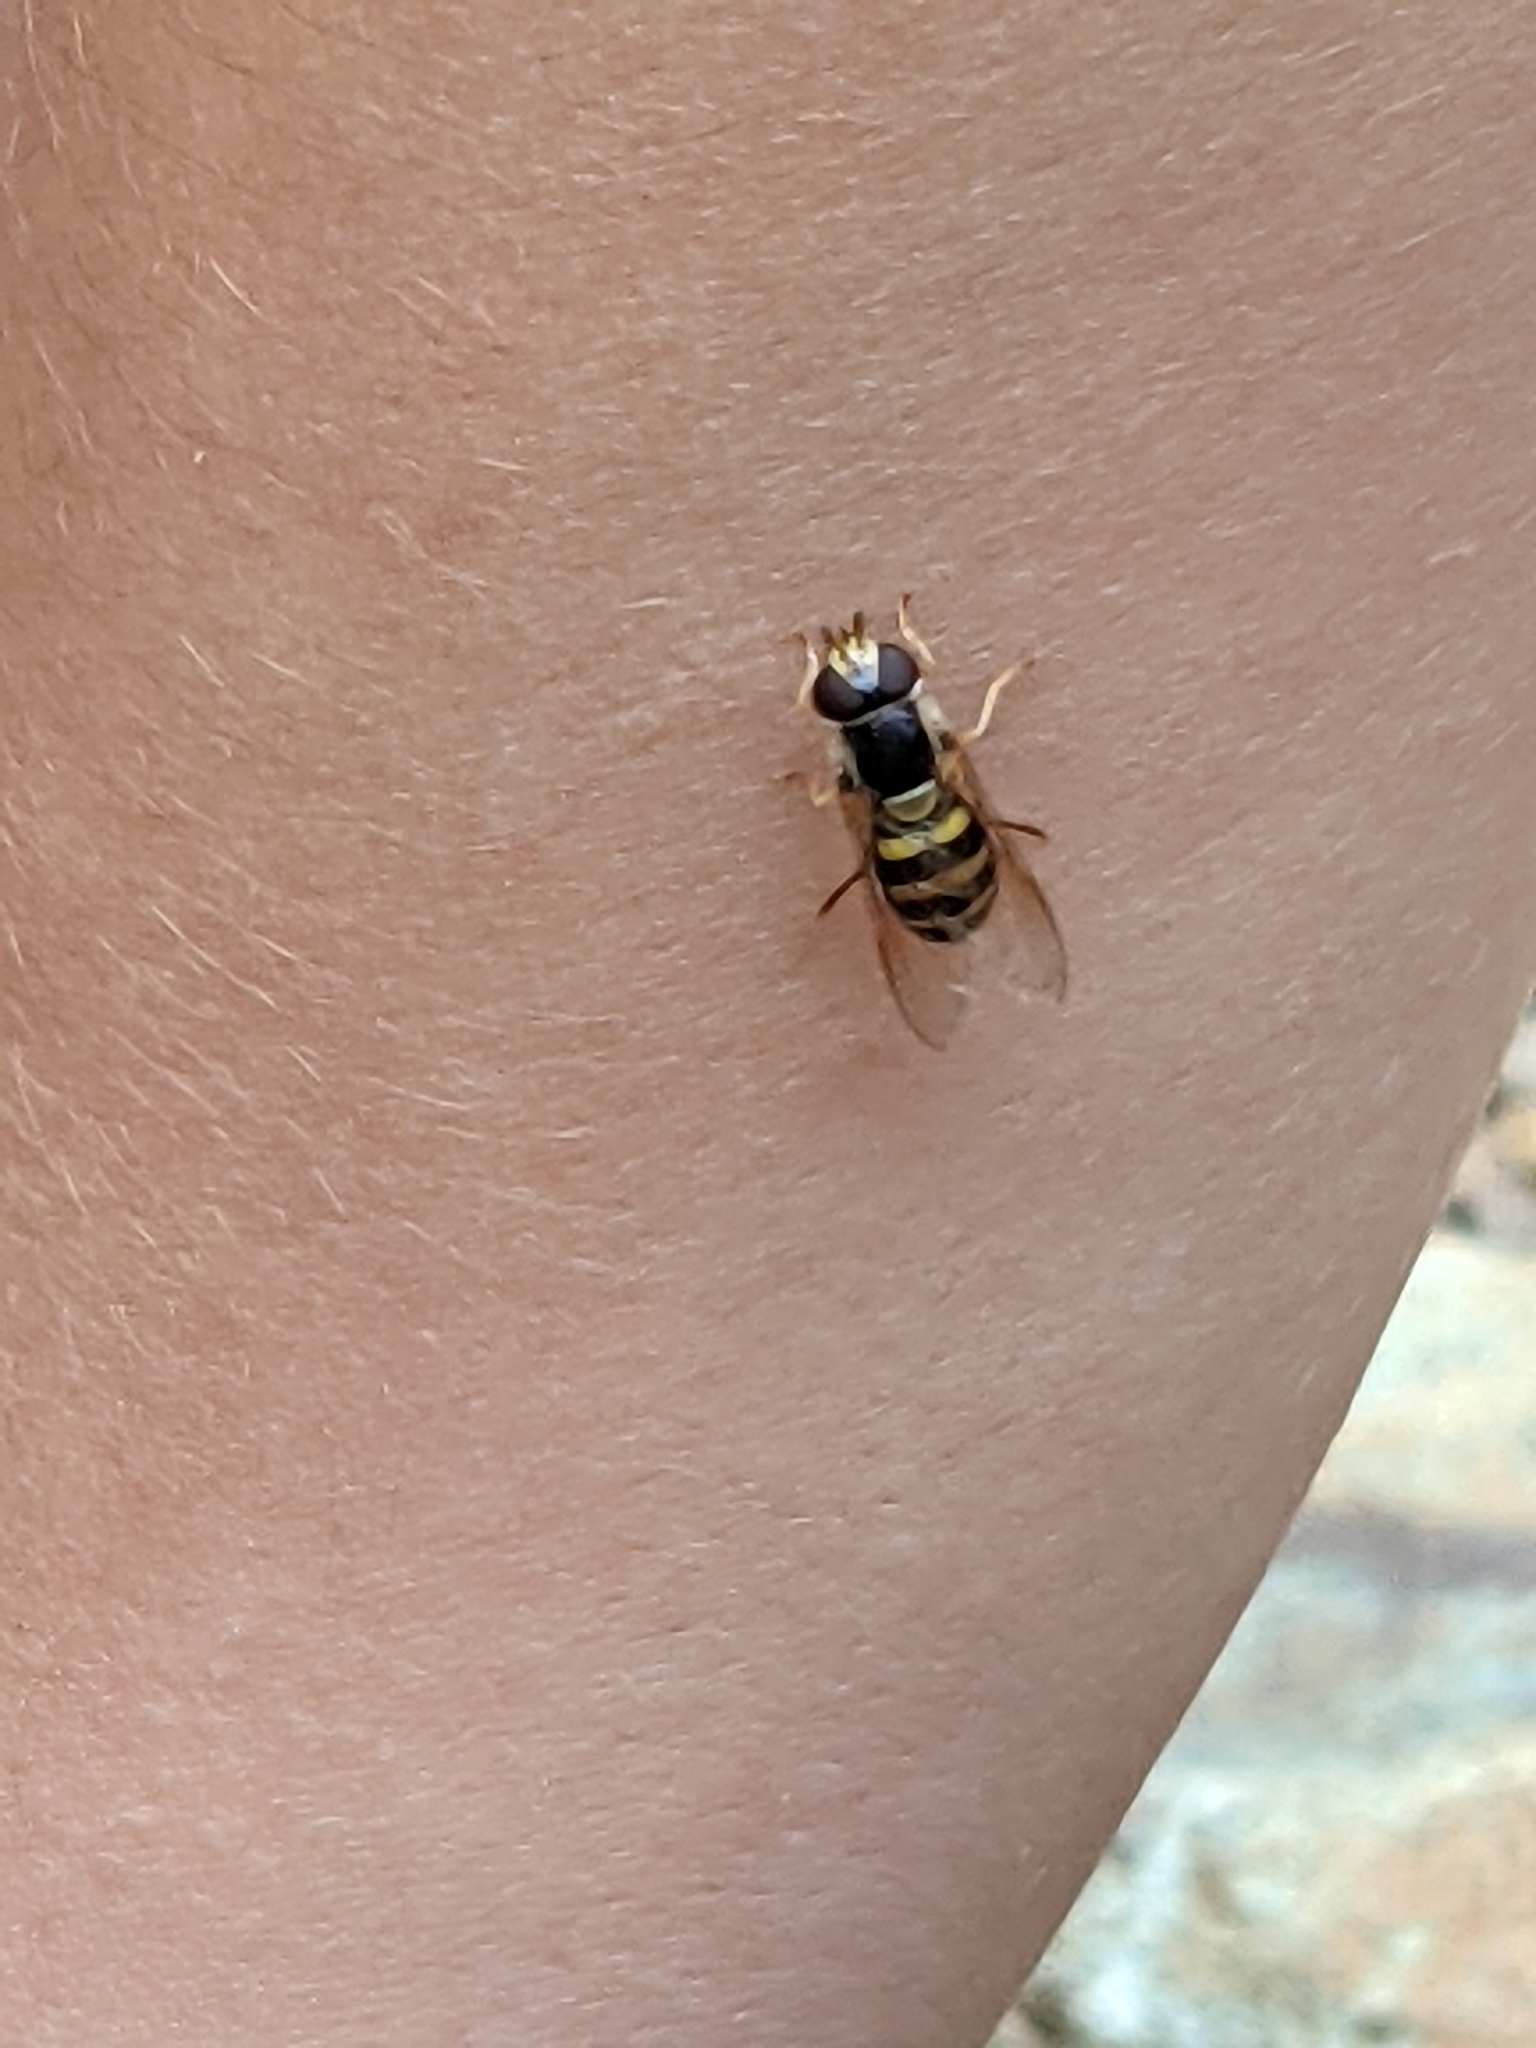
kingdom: Animalia
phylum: Arthropoda
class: Insecta
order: Diptera
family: Syrphidae
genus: Eupeodes
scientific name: Eupeodes
